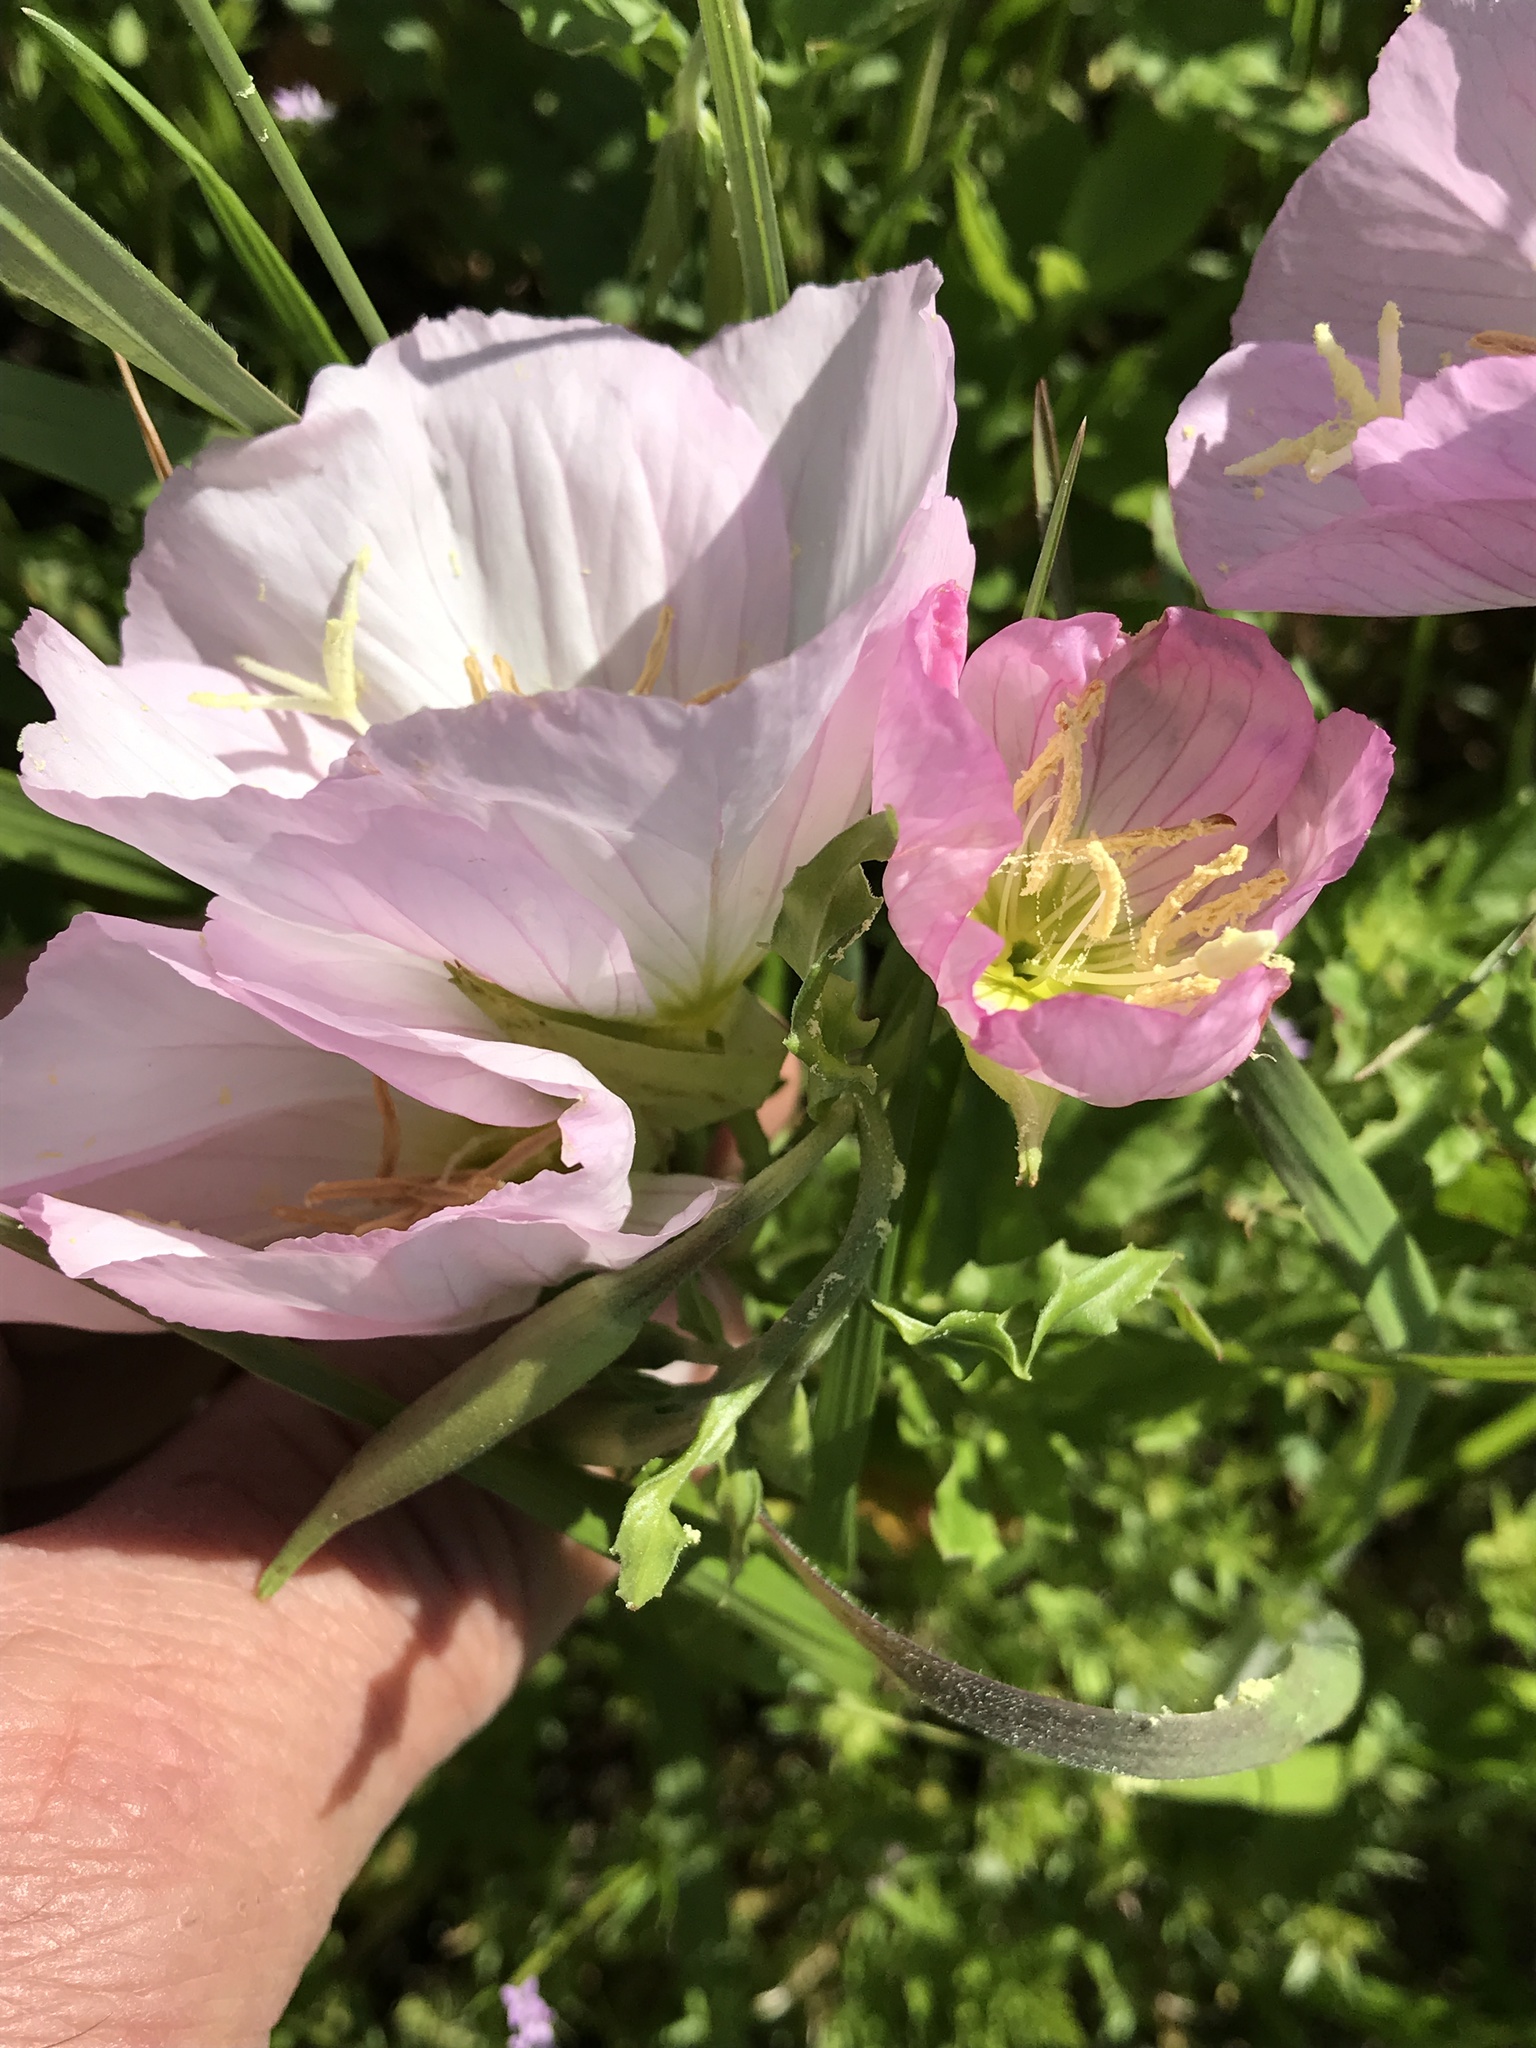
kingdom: Plantae
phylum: Tracheophyta
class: Magnoliopsida
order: Myrtales
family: Onagraceae
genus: Oenothera
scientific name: Oenothera speciosa
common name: White evening-primrose
